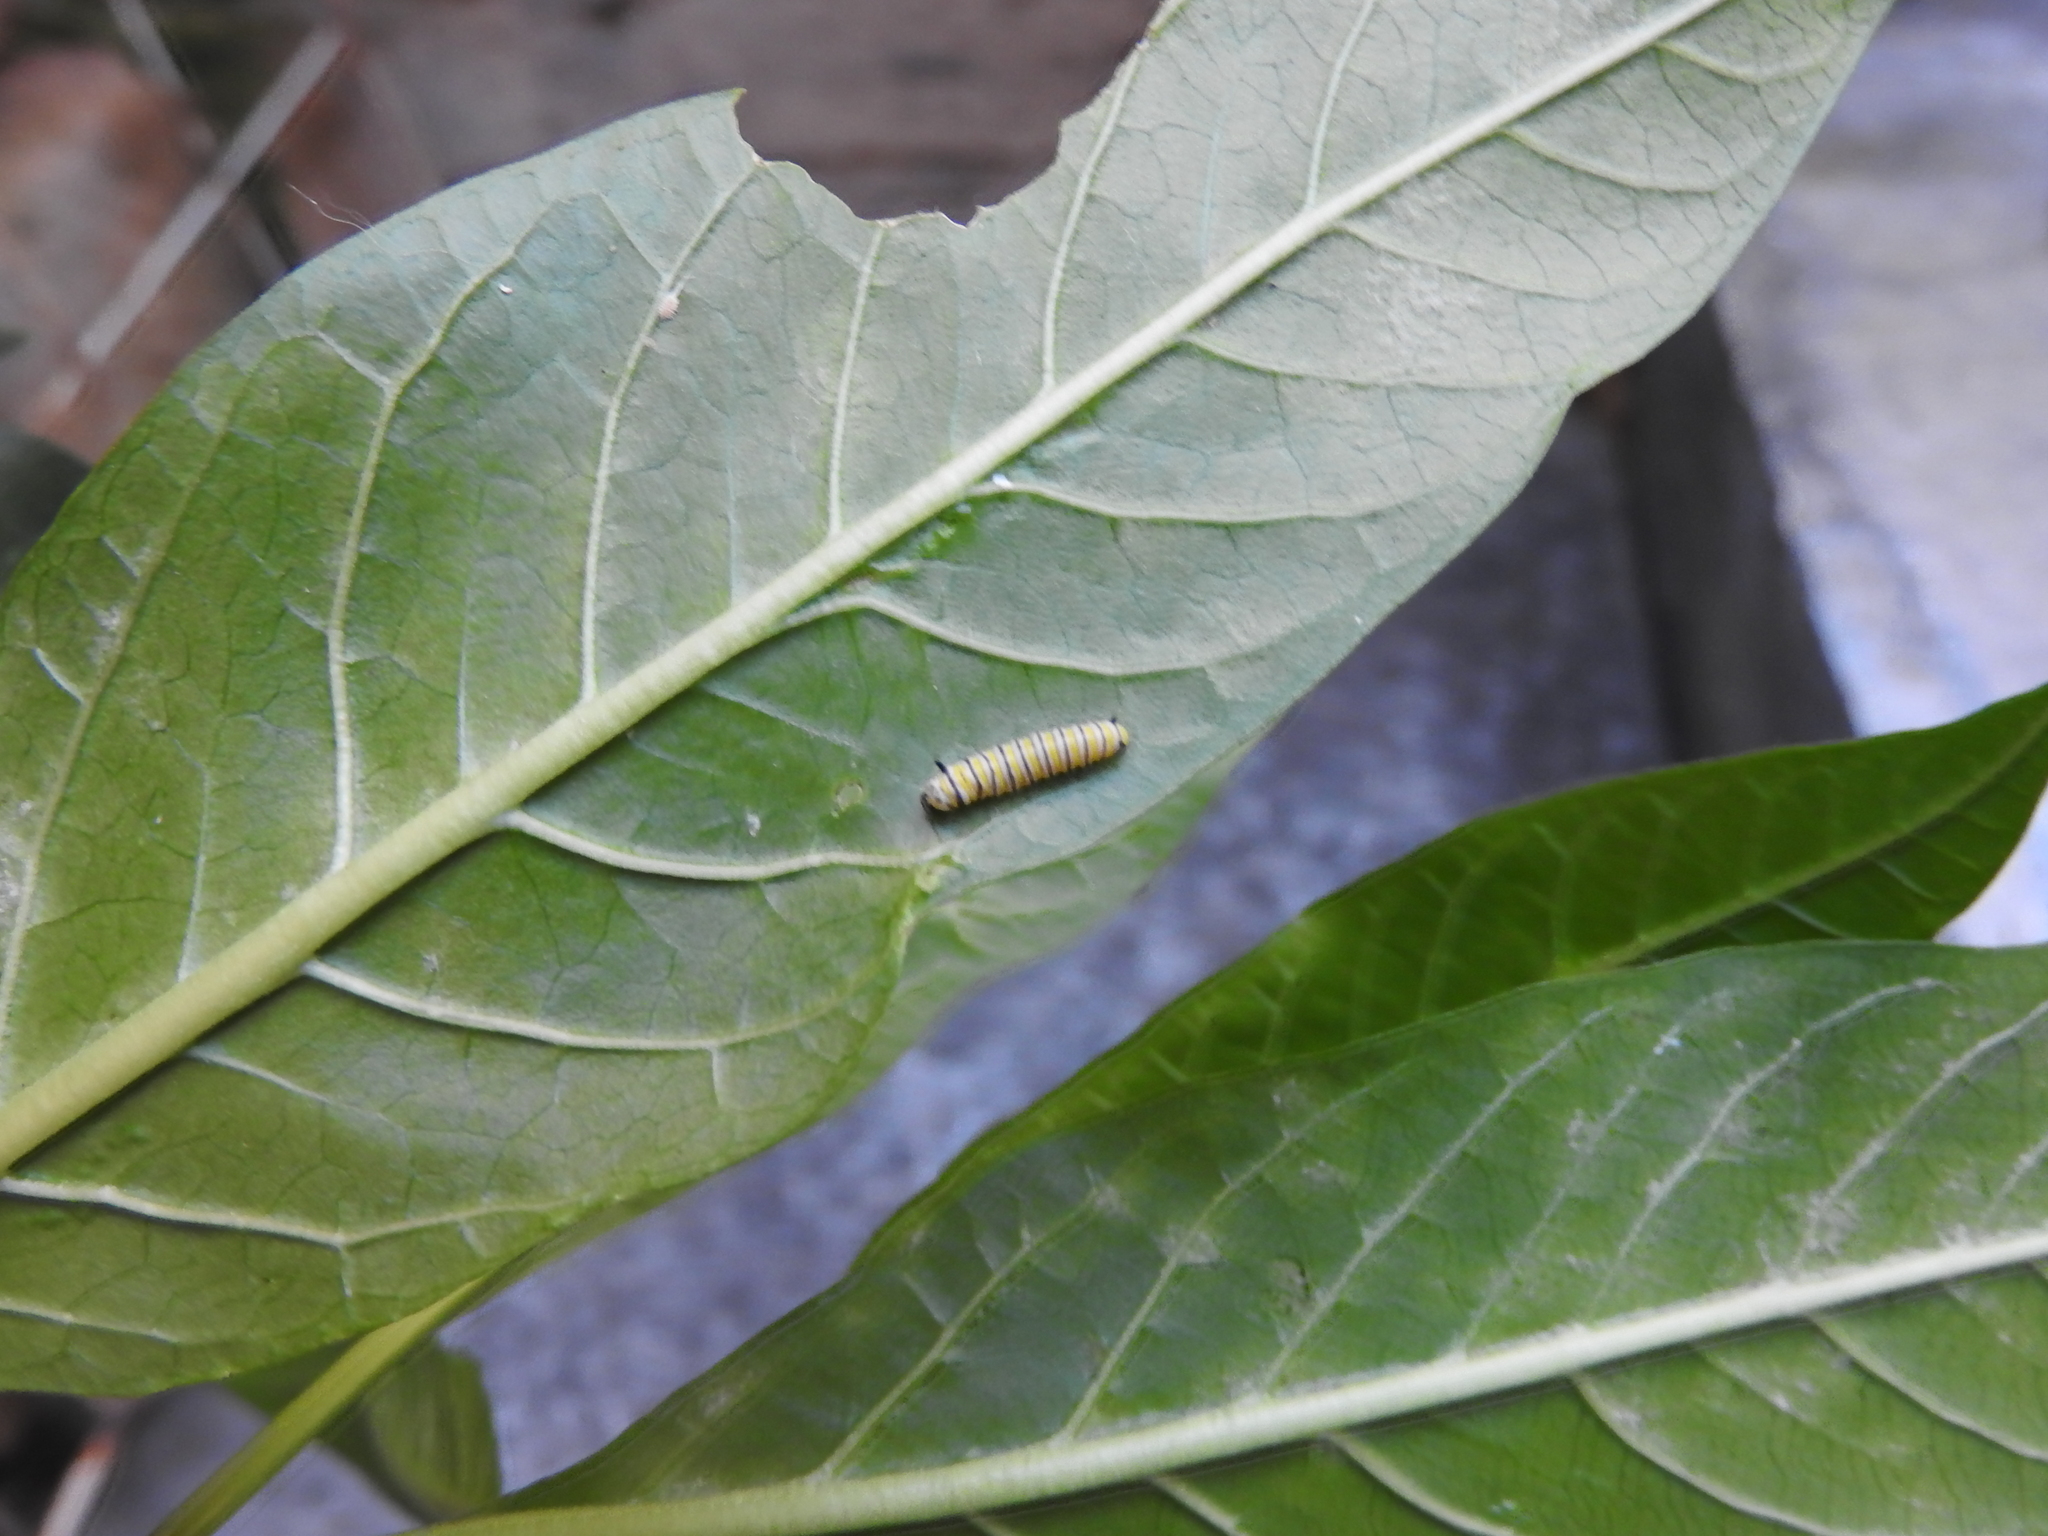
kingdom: Animalia
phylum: Arthropoda
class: Insecta
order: Lepidoptera
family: Nymphalidae
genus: Danaus
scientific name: Danaus plexippus
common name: Monarch
